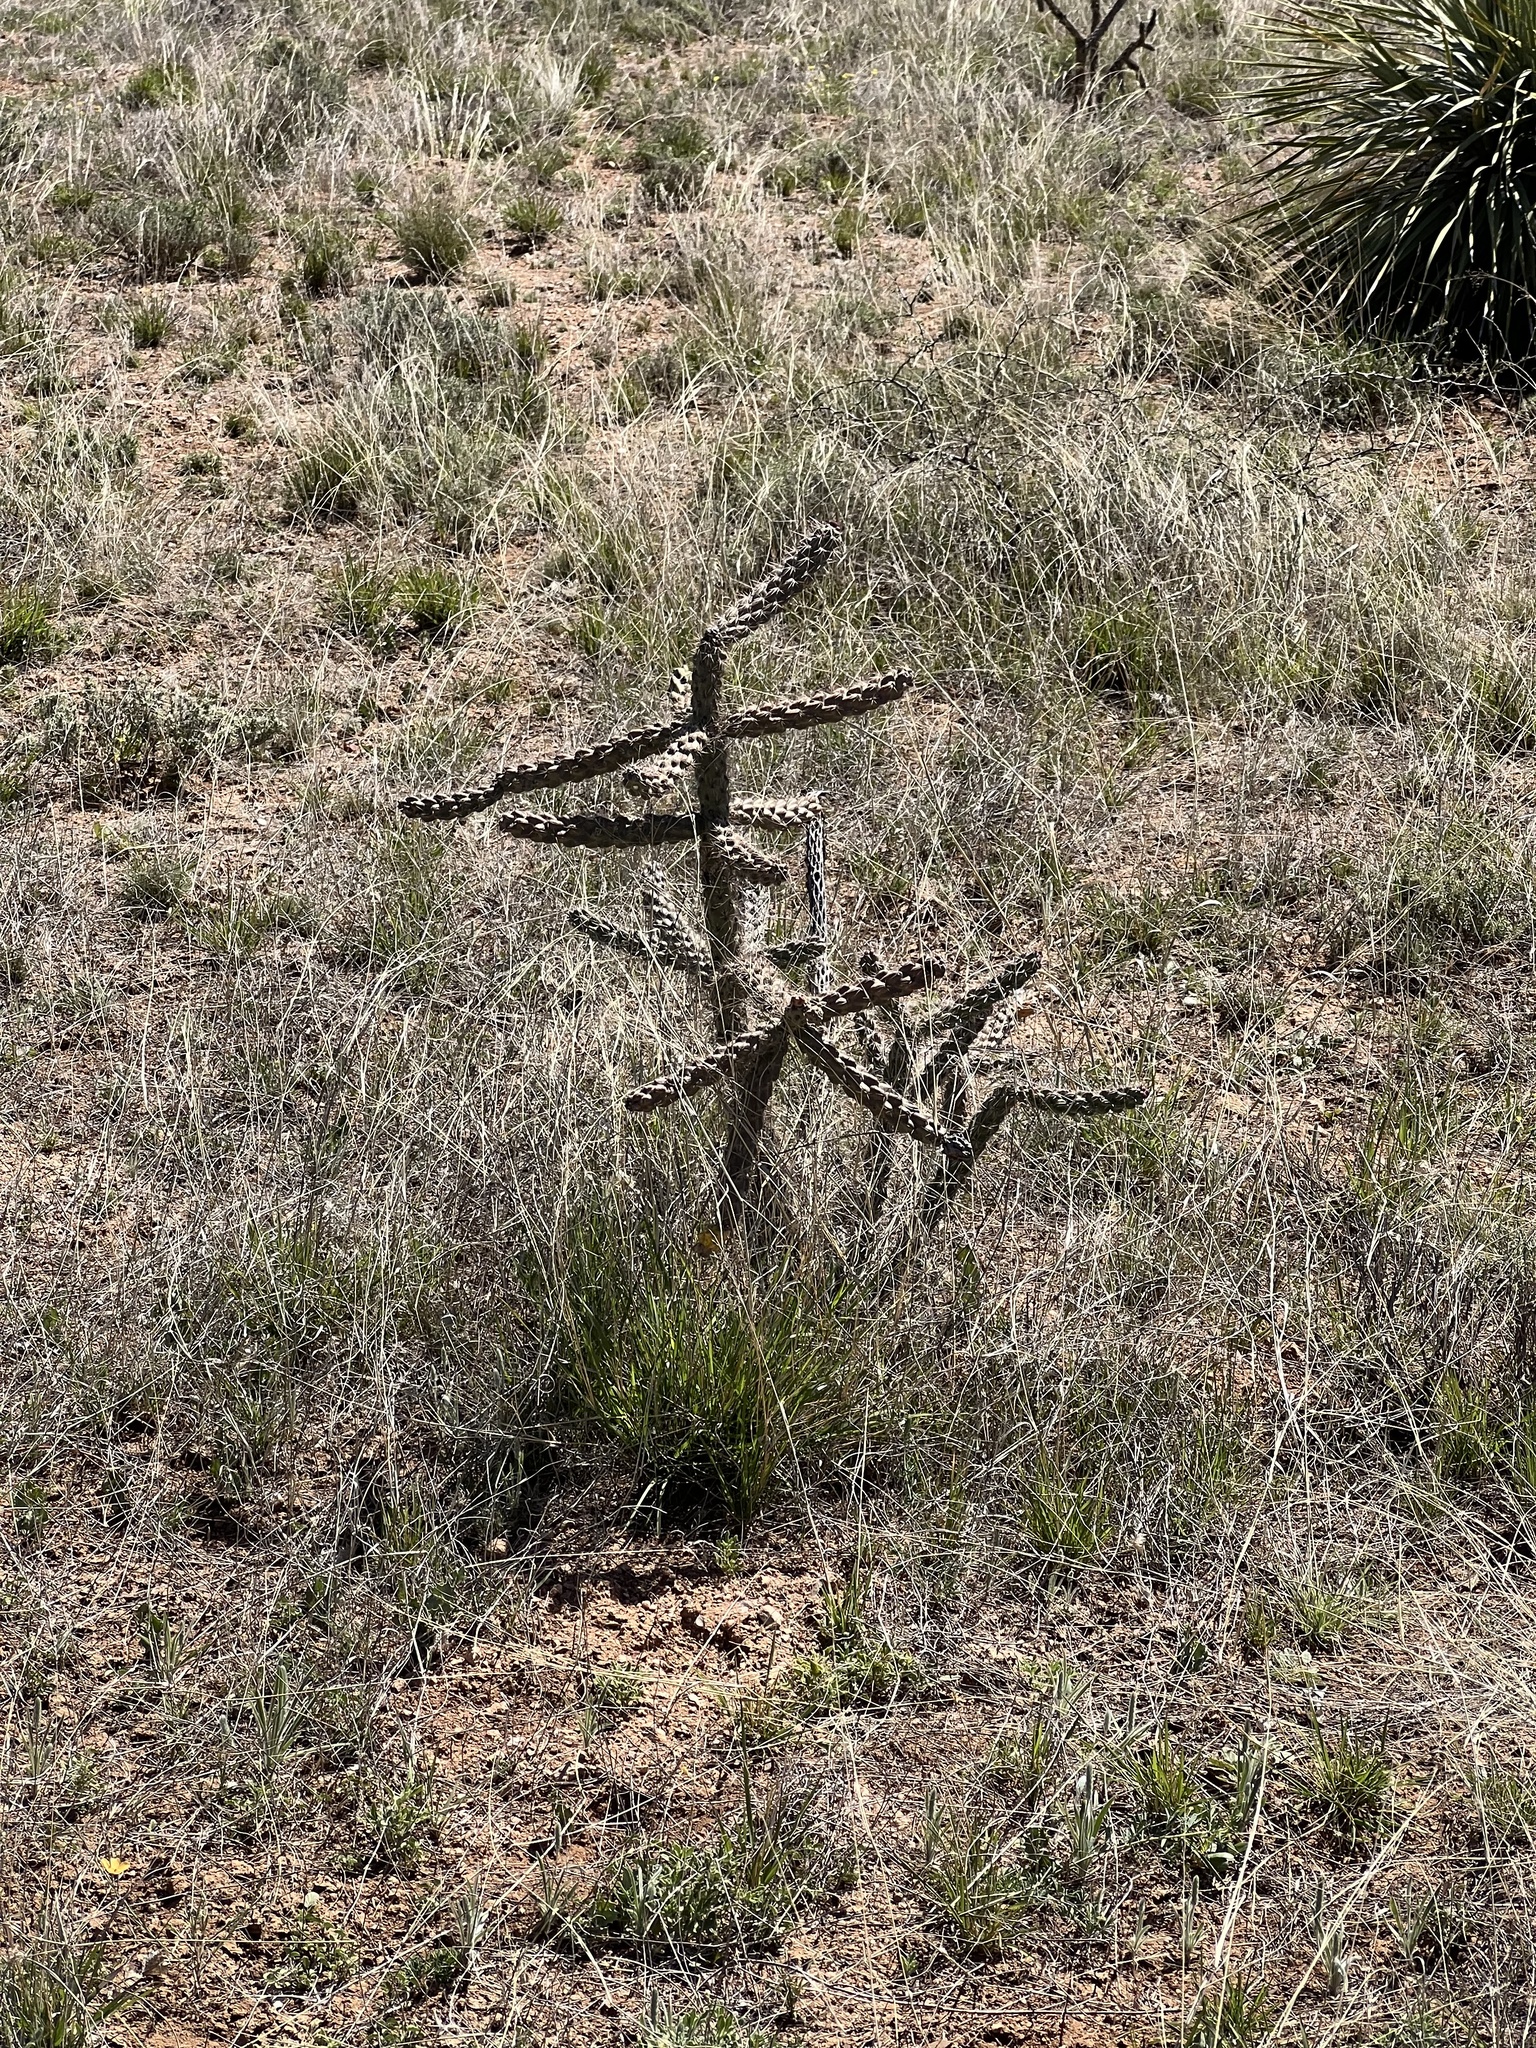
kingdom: Plantae
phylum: Tracheophyta
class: Magnoliopsida
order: Caryophyllales
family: Cactaceae
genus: Cylindropuntia
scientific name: Cylindropuntia imbricata
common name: Candelabrum cactus
